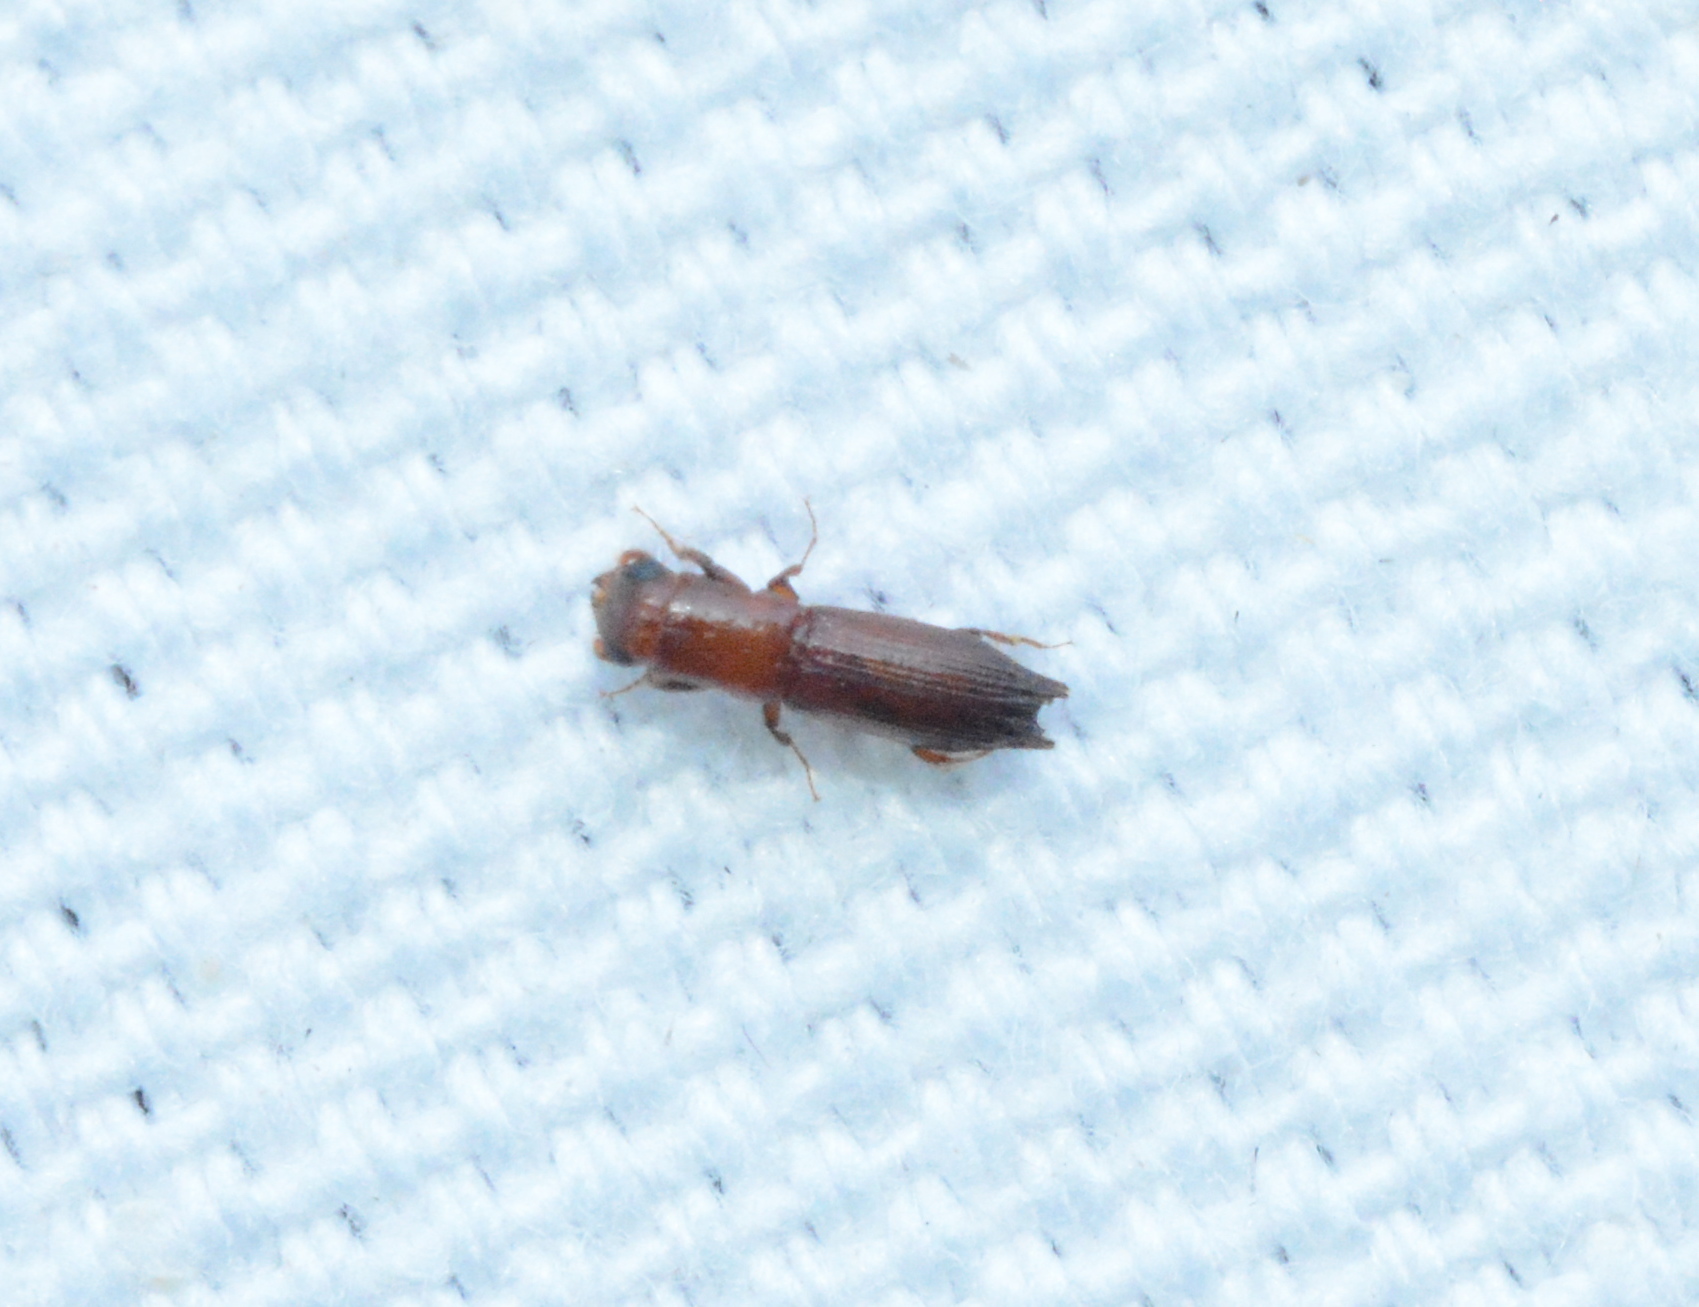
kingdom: Animalia
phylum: Arthropoda
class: Insecta
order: Coleoptera
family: Curculionidae
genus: Euplatypus
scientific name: Euplatypus compositus
